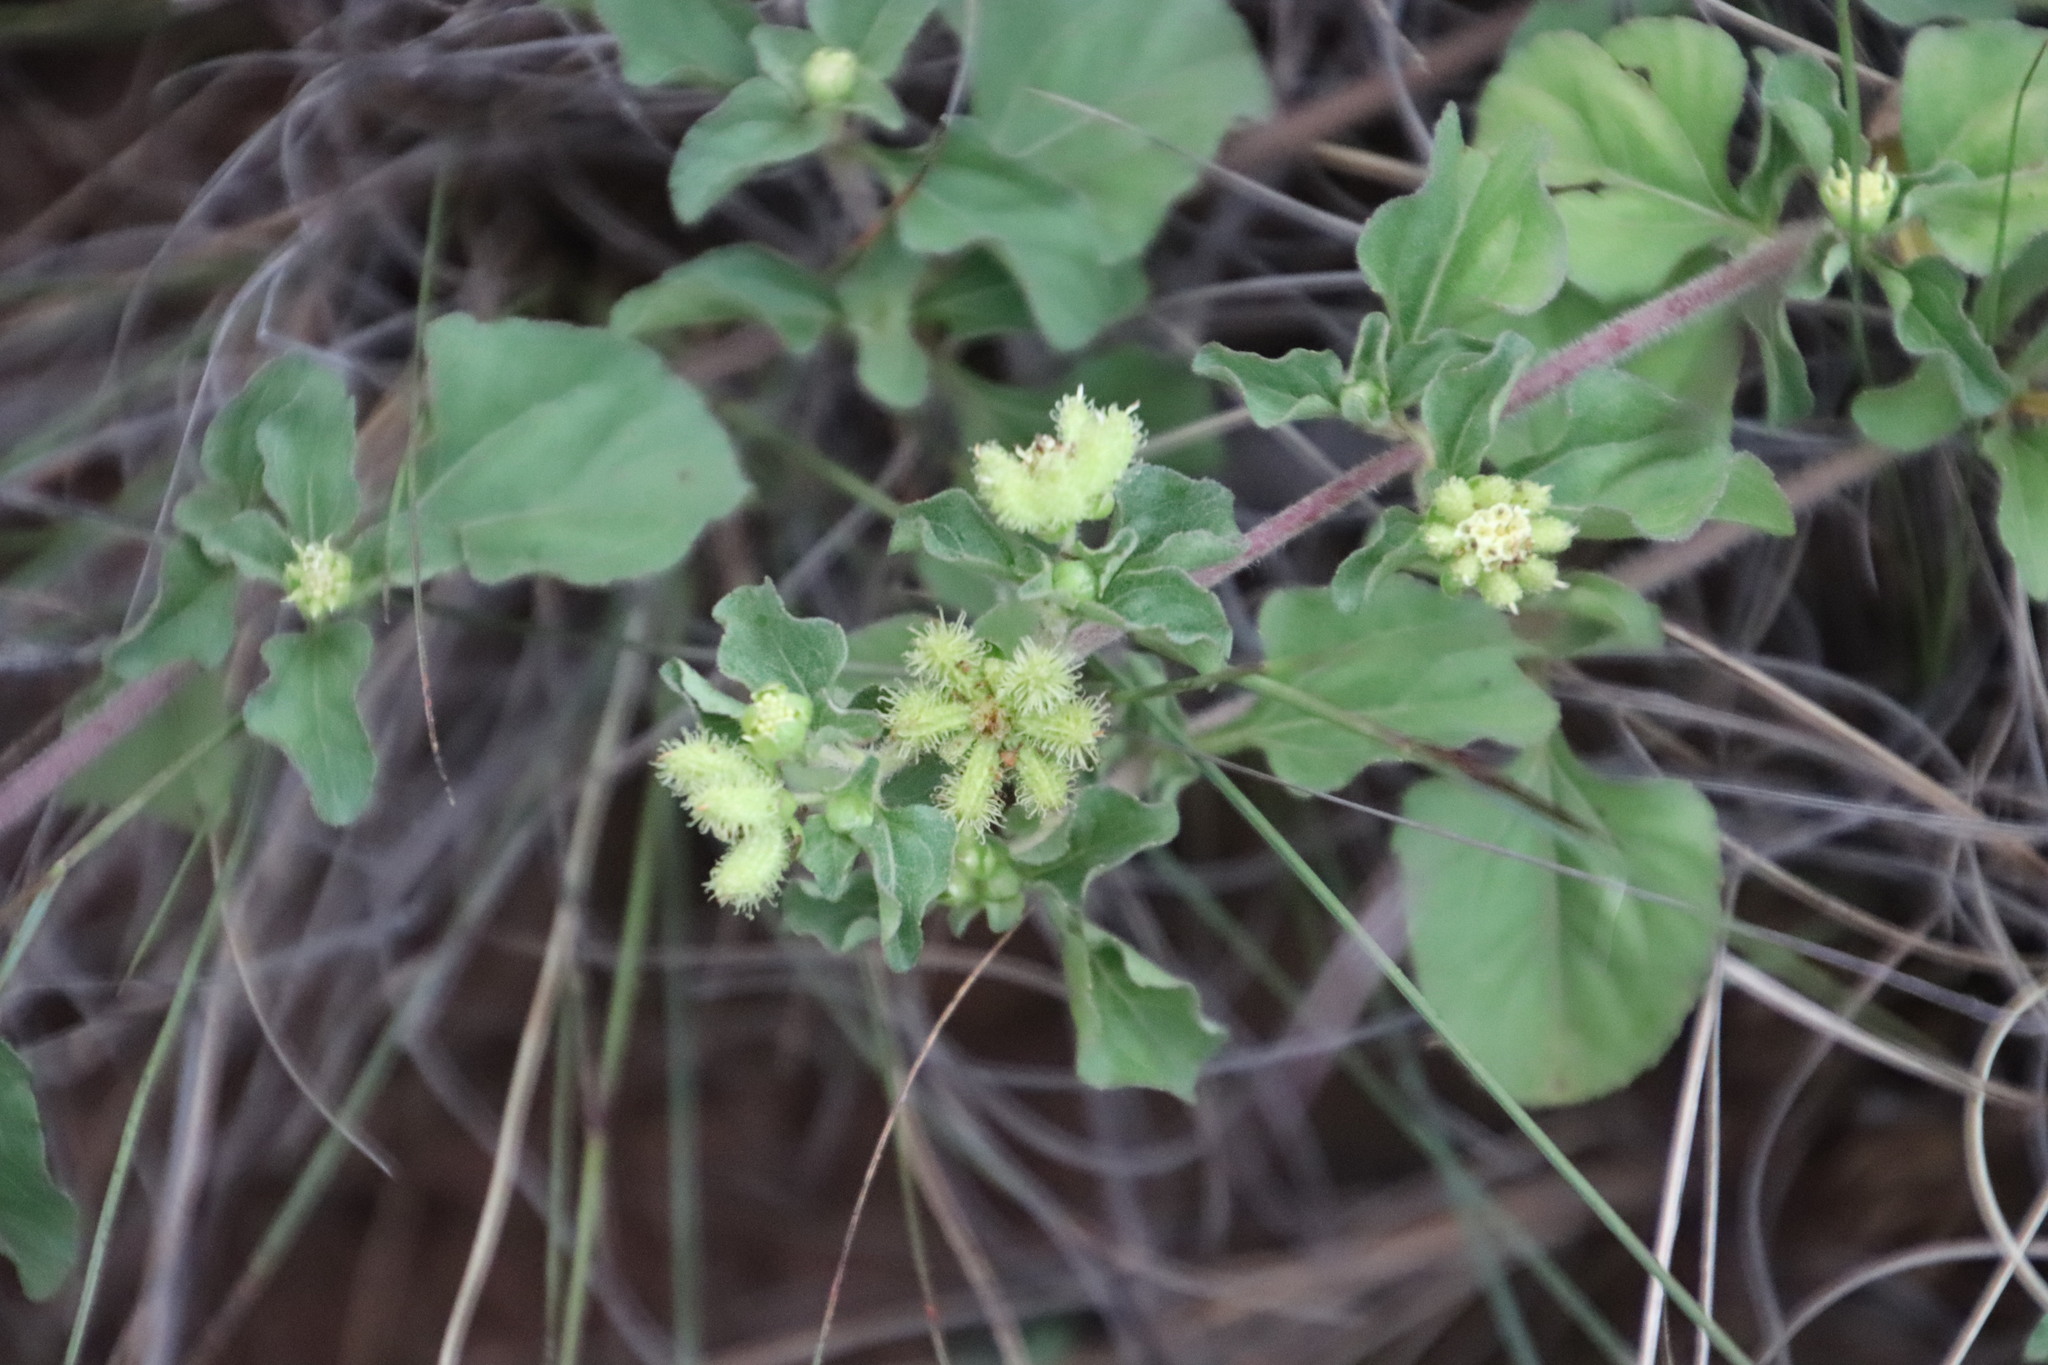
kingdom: Plantae
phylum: Tracheophyta
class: Magnoliopsida
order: Asterales
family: Asteraceae
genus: Acanthospermum
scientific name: Acanthospermum australe
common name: Paraguayan starbur
